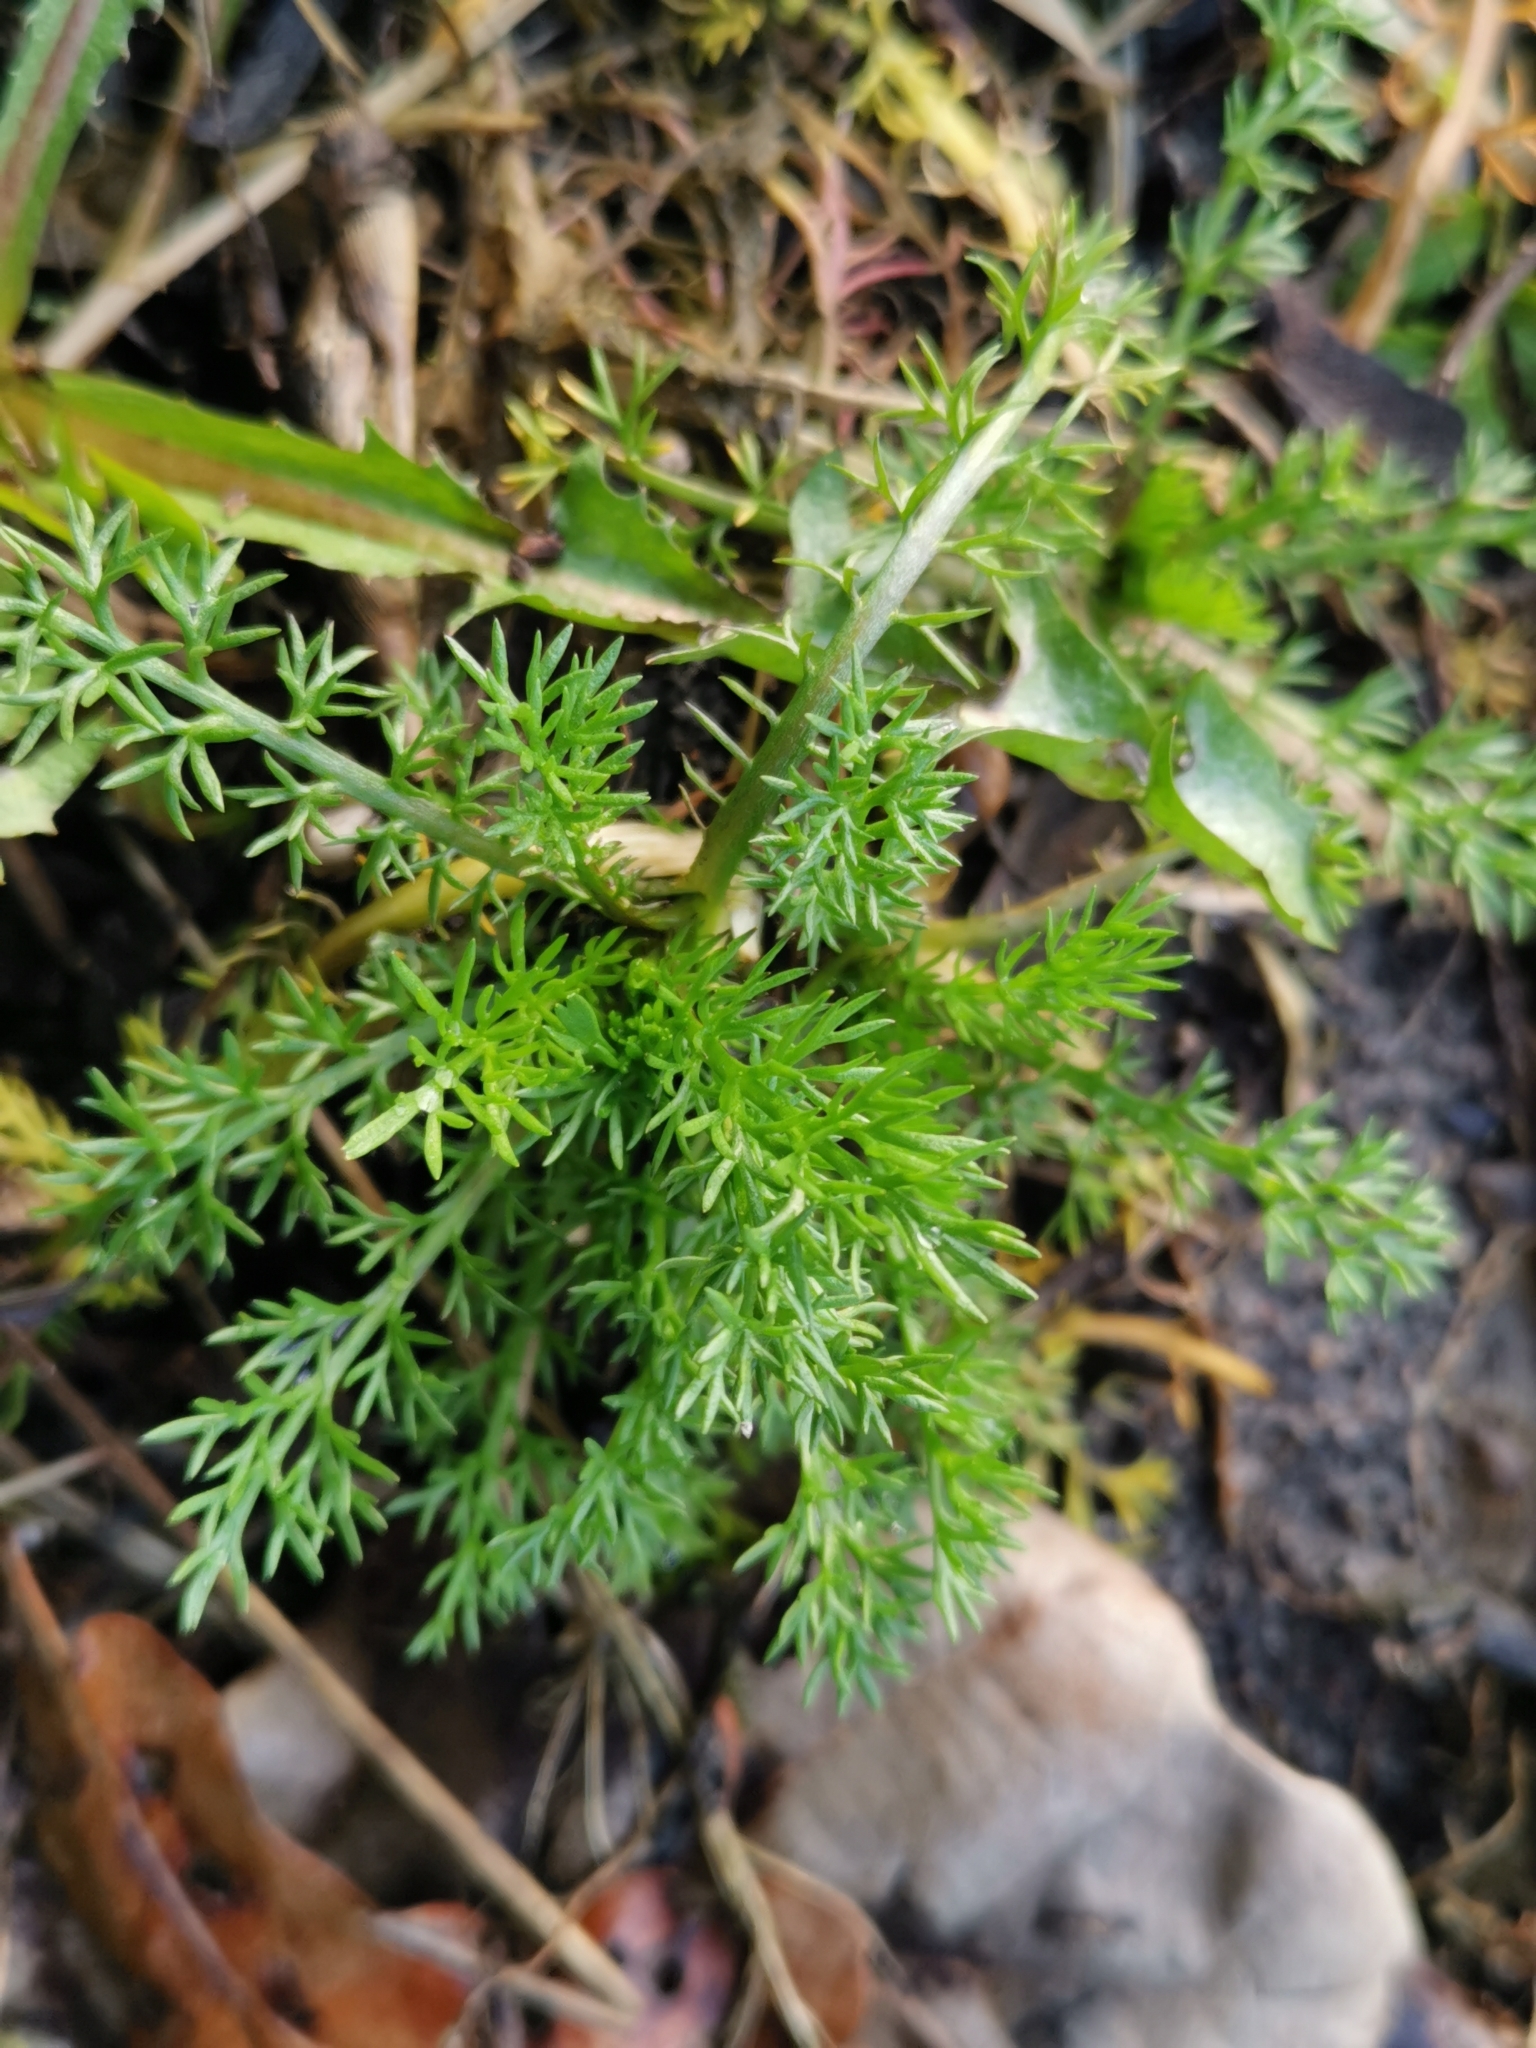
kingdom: Plantae
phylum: Tracheophyta
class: Magnoliopsida
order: Asterales
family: Asteraceae
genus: Tripleurospermum
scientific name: Tripleurospermum inodorum
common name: Scentless mayweed
